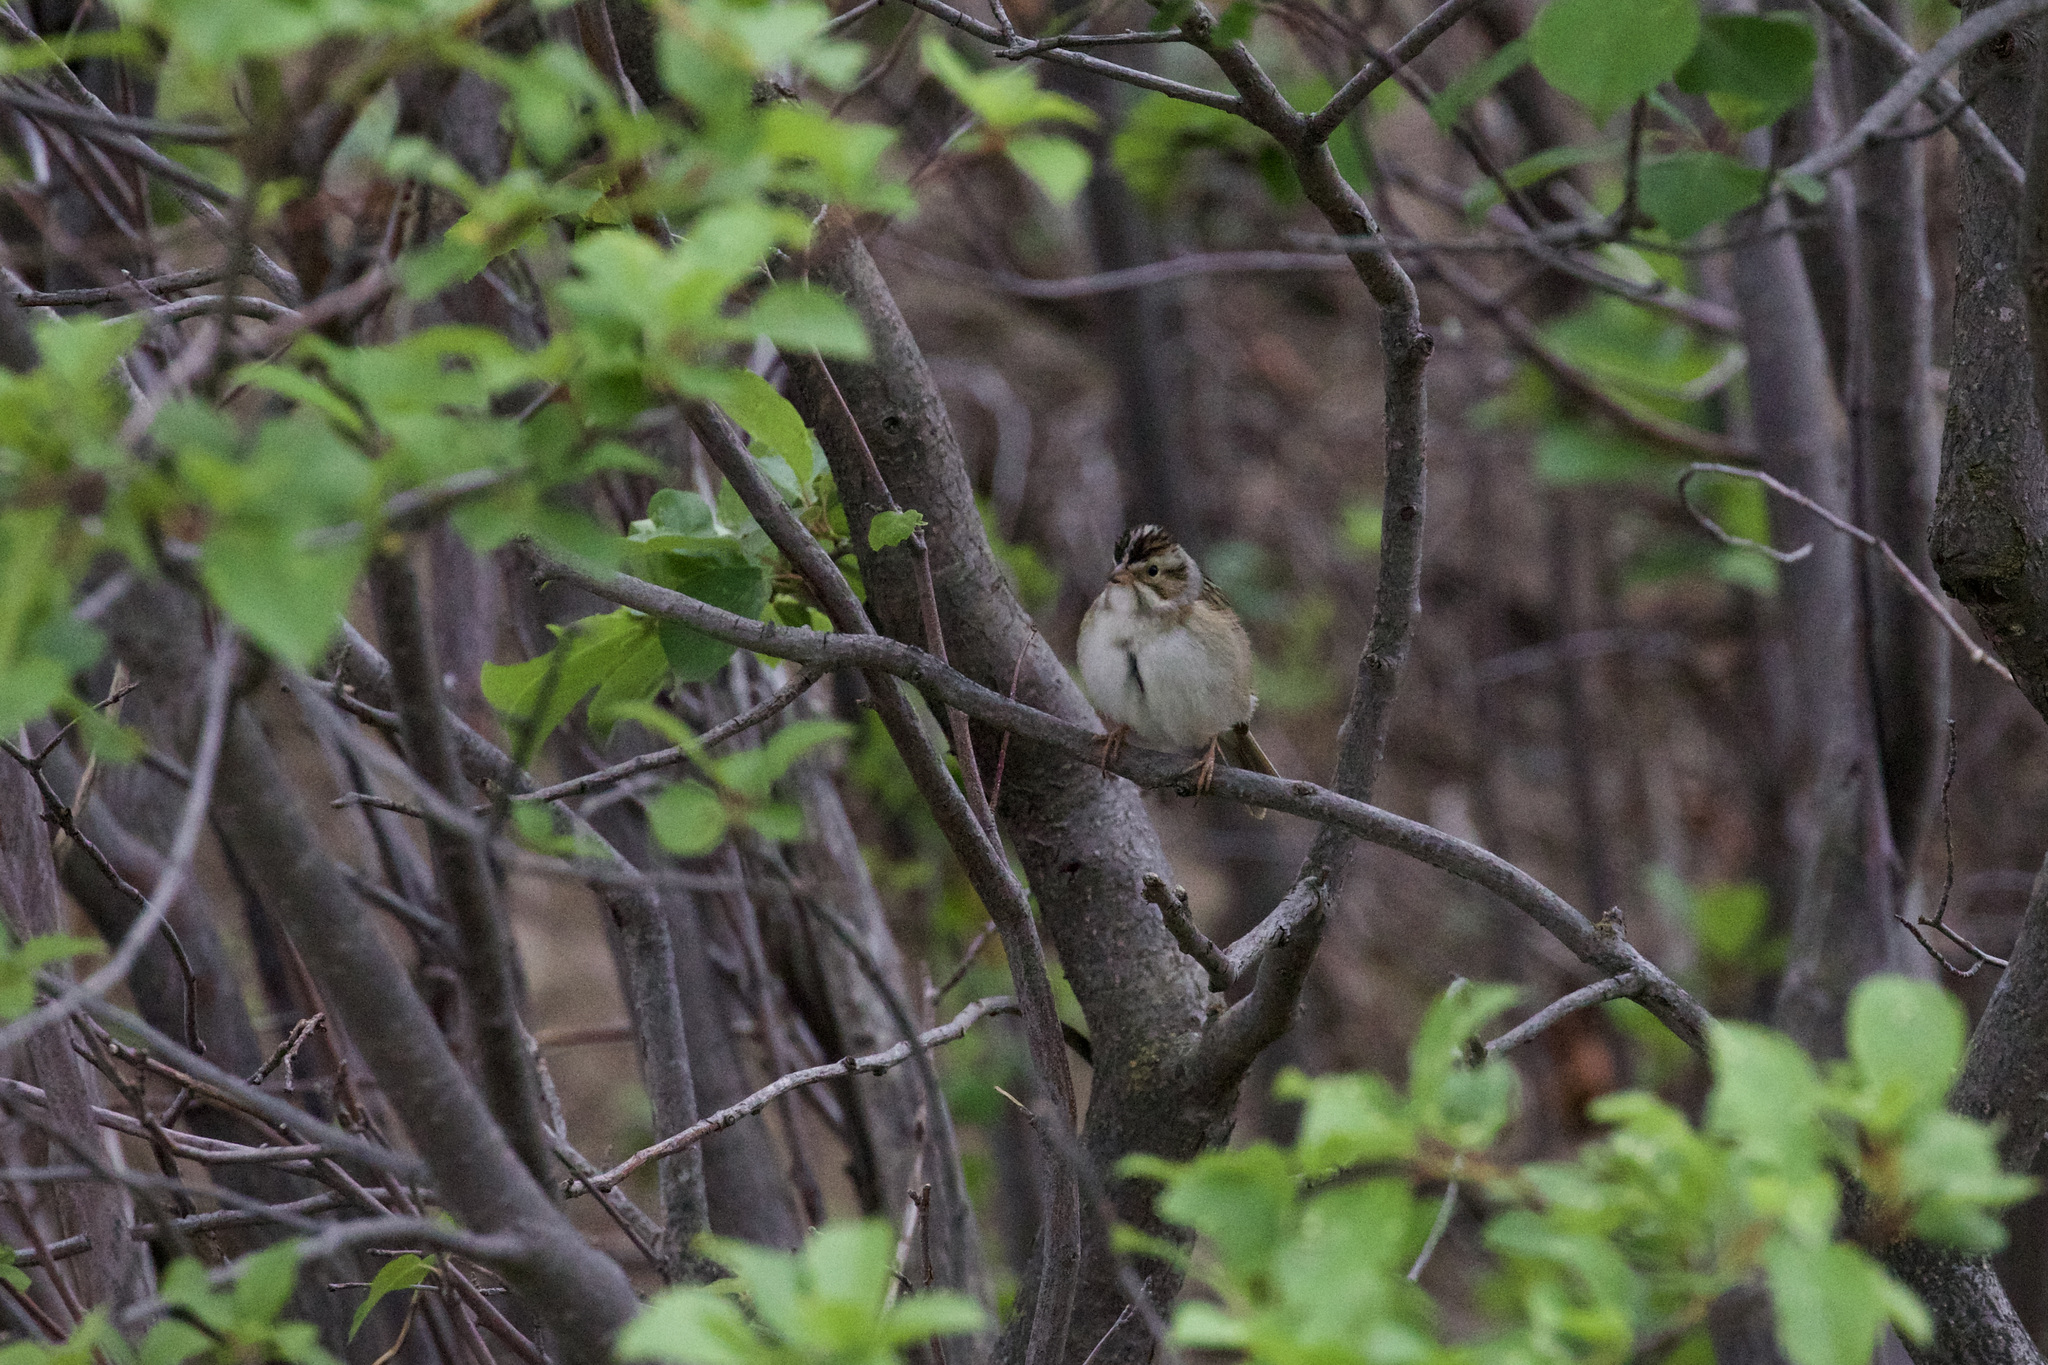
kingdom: Animalia
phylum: Chordata
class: Aves
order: Passeriformes
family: Passerellidae
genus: Spizella
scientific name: Spizella pallida
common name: Clay-colored sparrow
